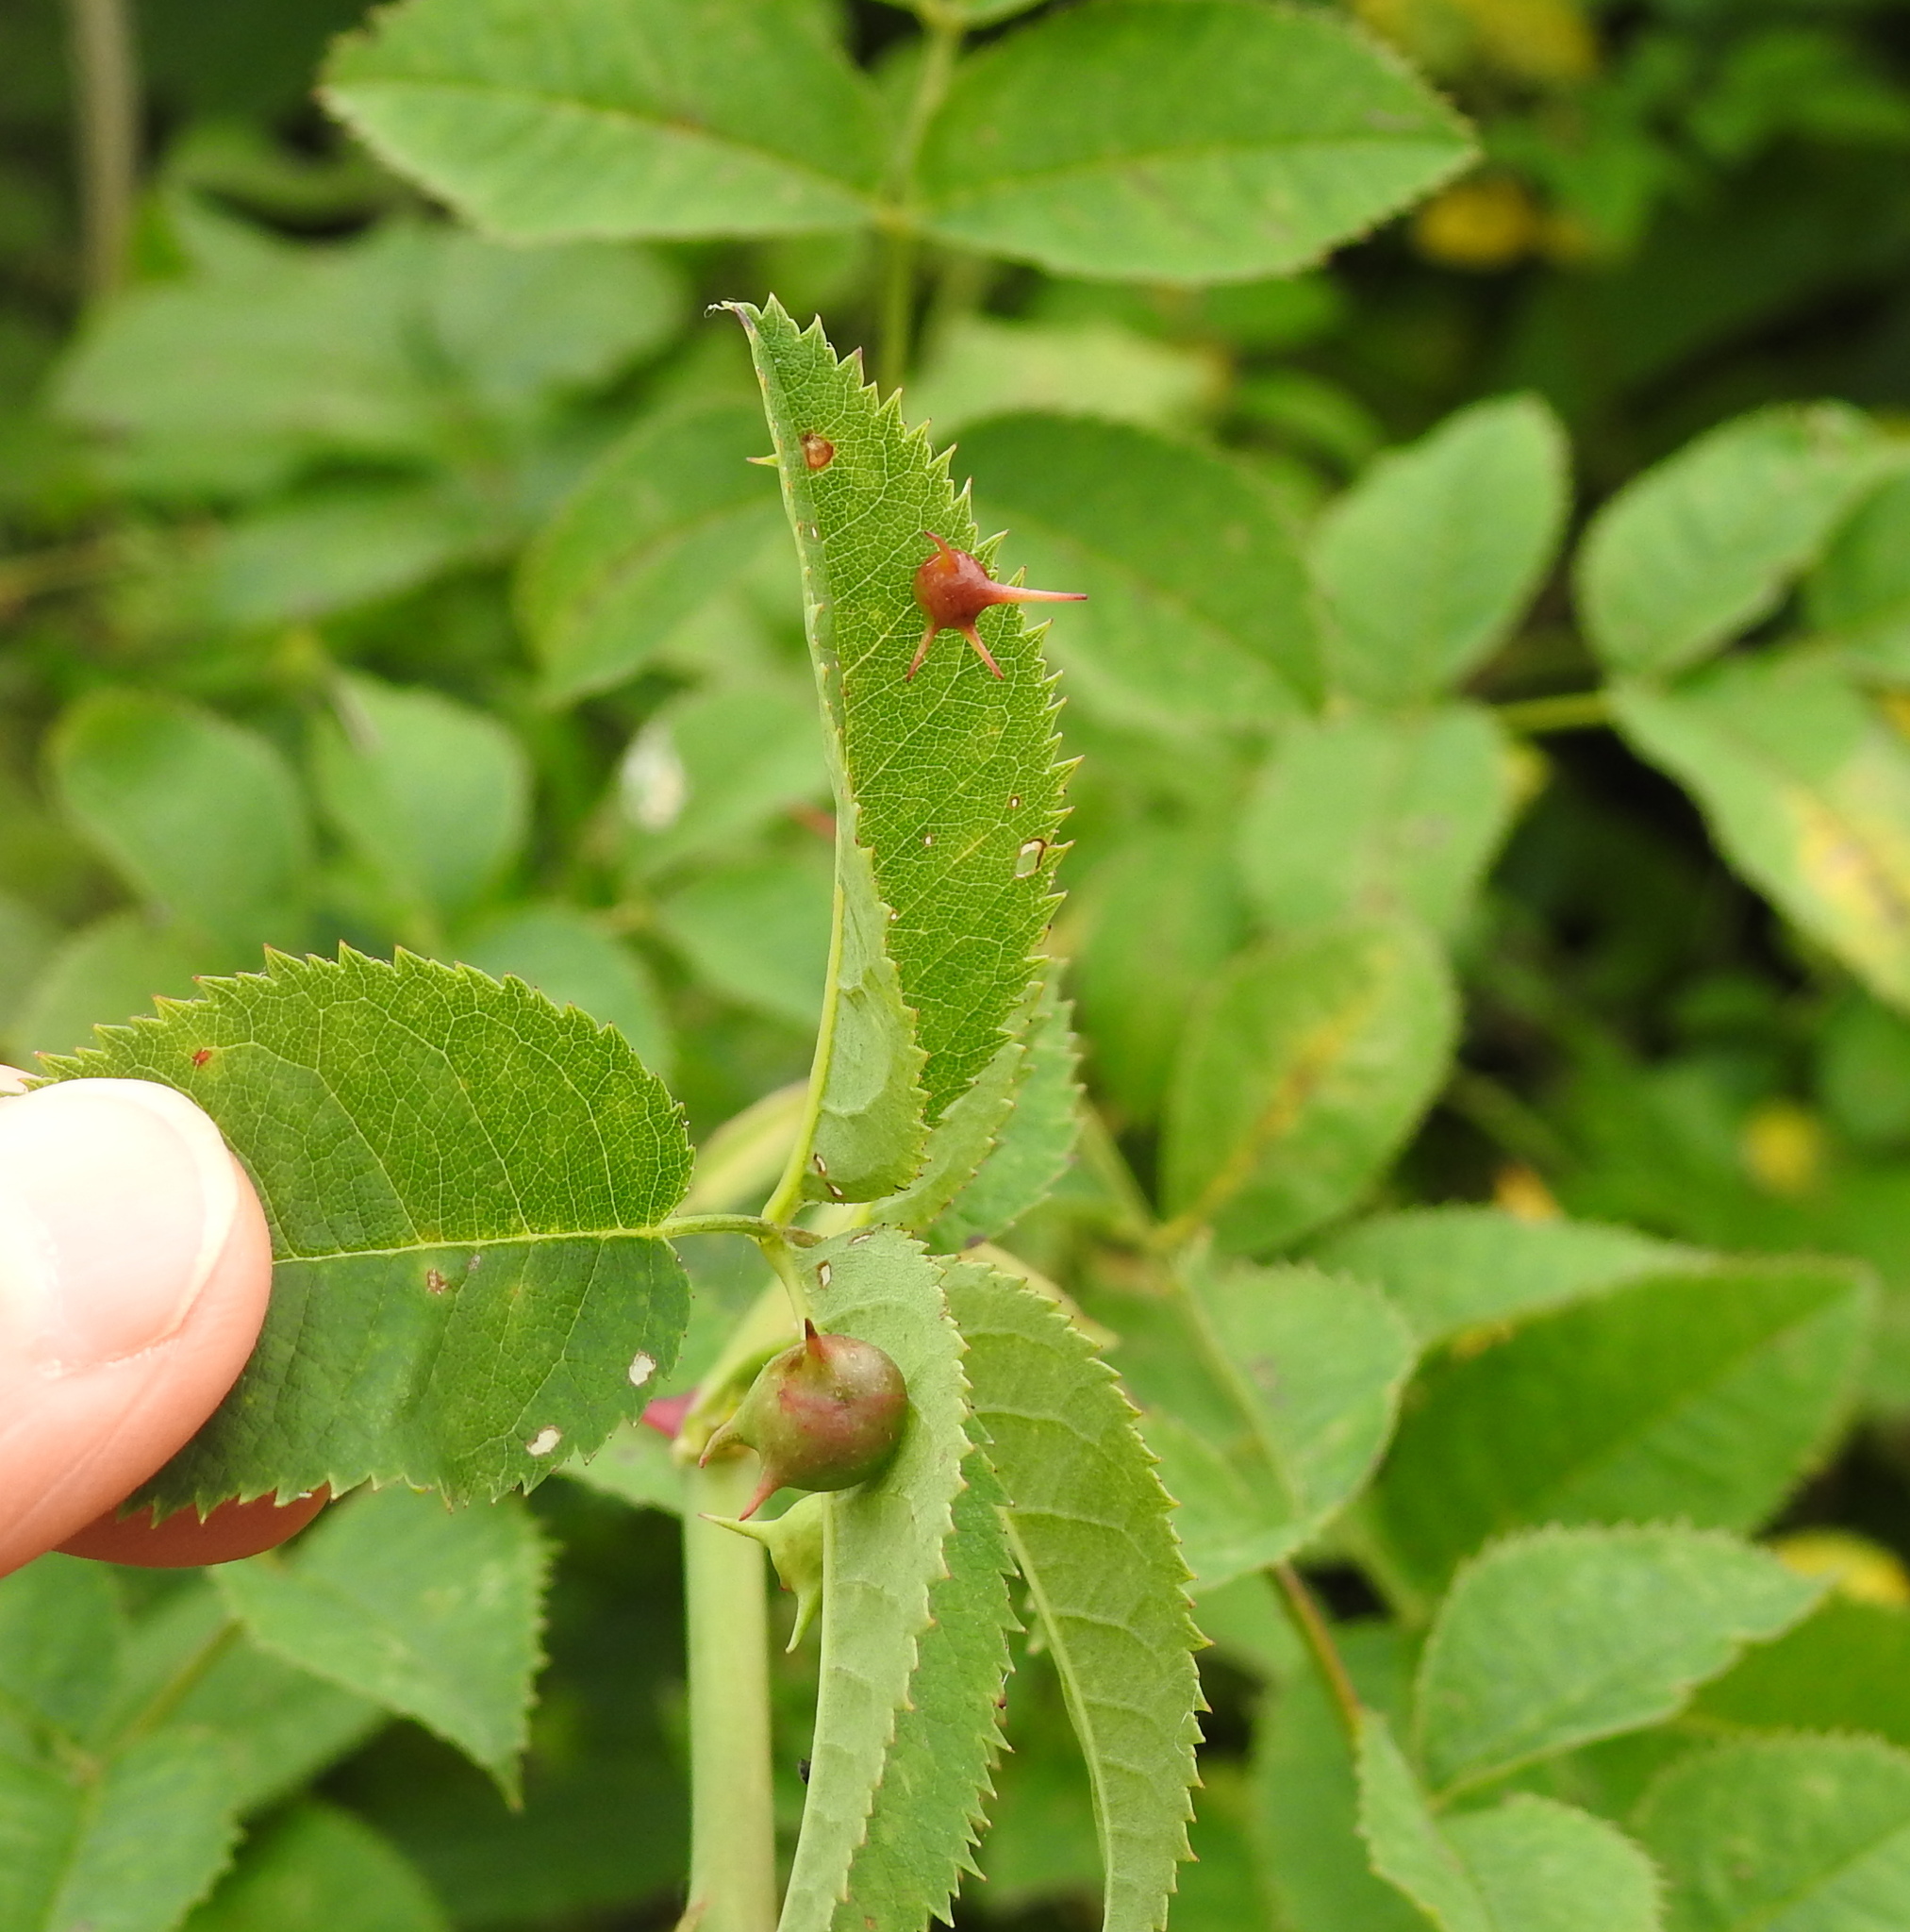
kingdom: Animalia
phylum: Arthropoda
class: Insecta
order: Hymenoptera
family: Cynipidae
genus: Diplolepis
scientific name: Diplolepis nervosa
